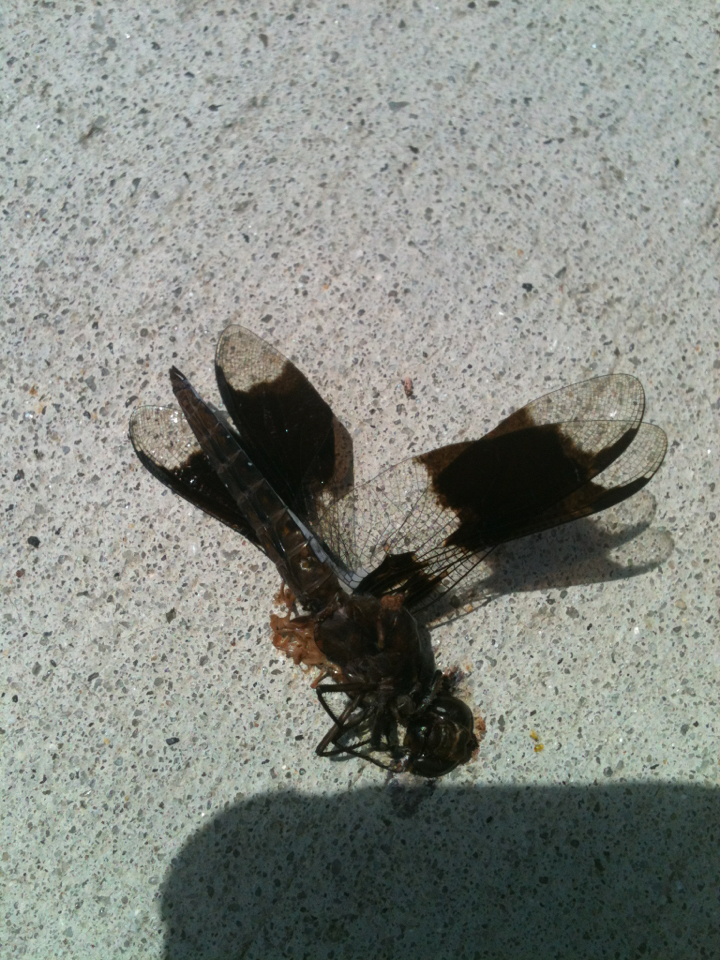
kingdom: Animalia
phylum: Arthropoda
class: Insecta
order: Odonata
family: Libellulidae
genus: Plathemis
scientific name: Plathemis lydia
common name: Common whitetail
